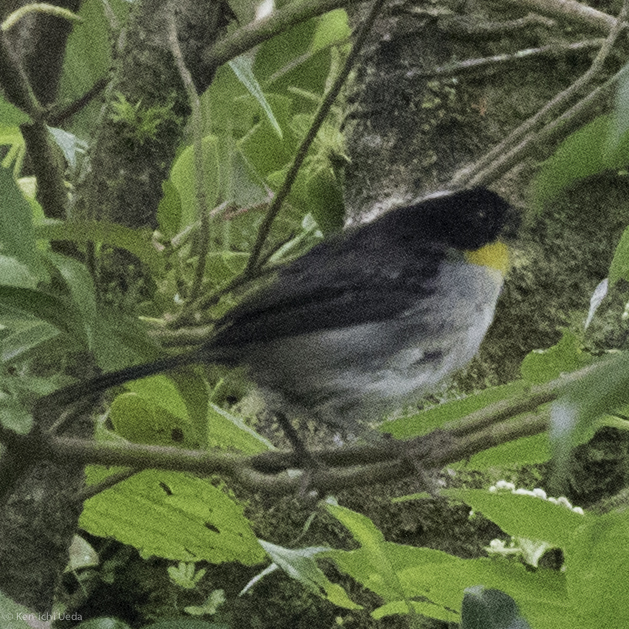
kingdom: Animalia
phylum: Chordata
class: Aves
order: Passeriformes
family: Passerellidae
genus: Atlapetes
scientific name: Atlapetes albinucha
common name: White-naped brush-finch
